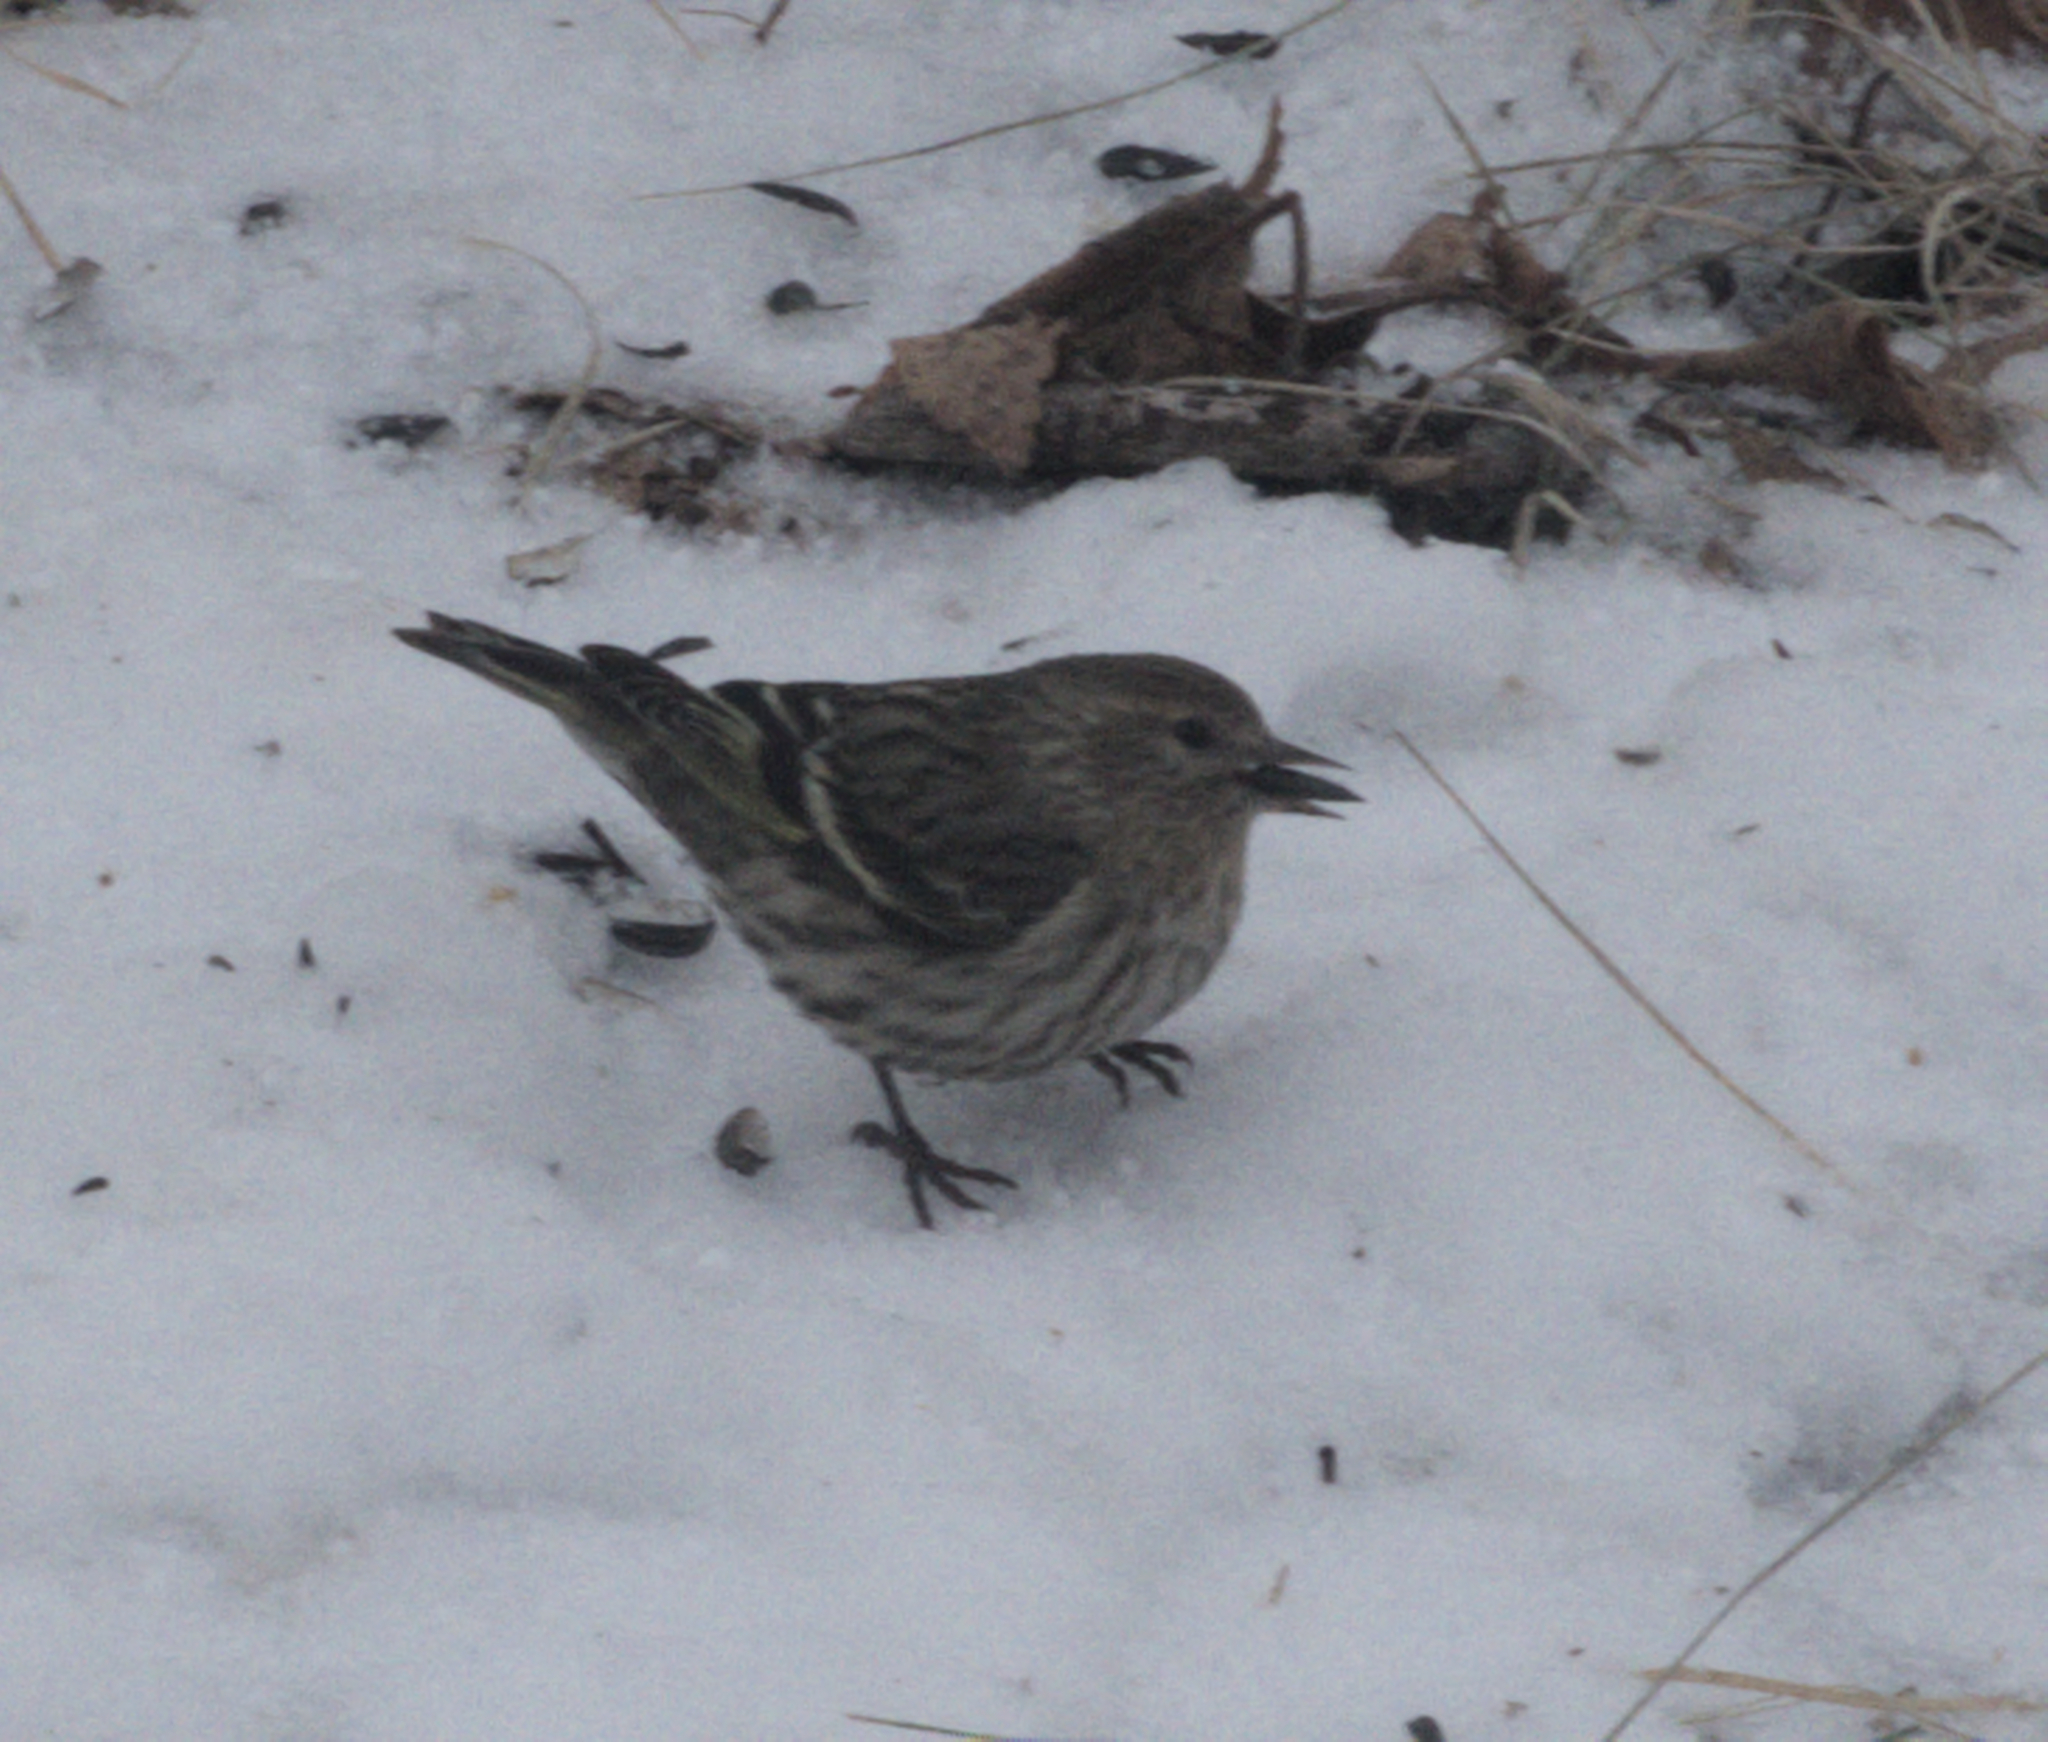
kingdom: Animalia
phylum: Chordata
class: Aves
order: Passeriformes
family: Fringillidae
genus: Spinus
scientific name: Spinus pinus
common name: Pine siskin
